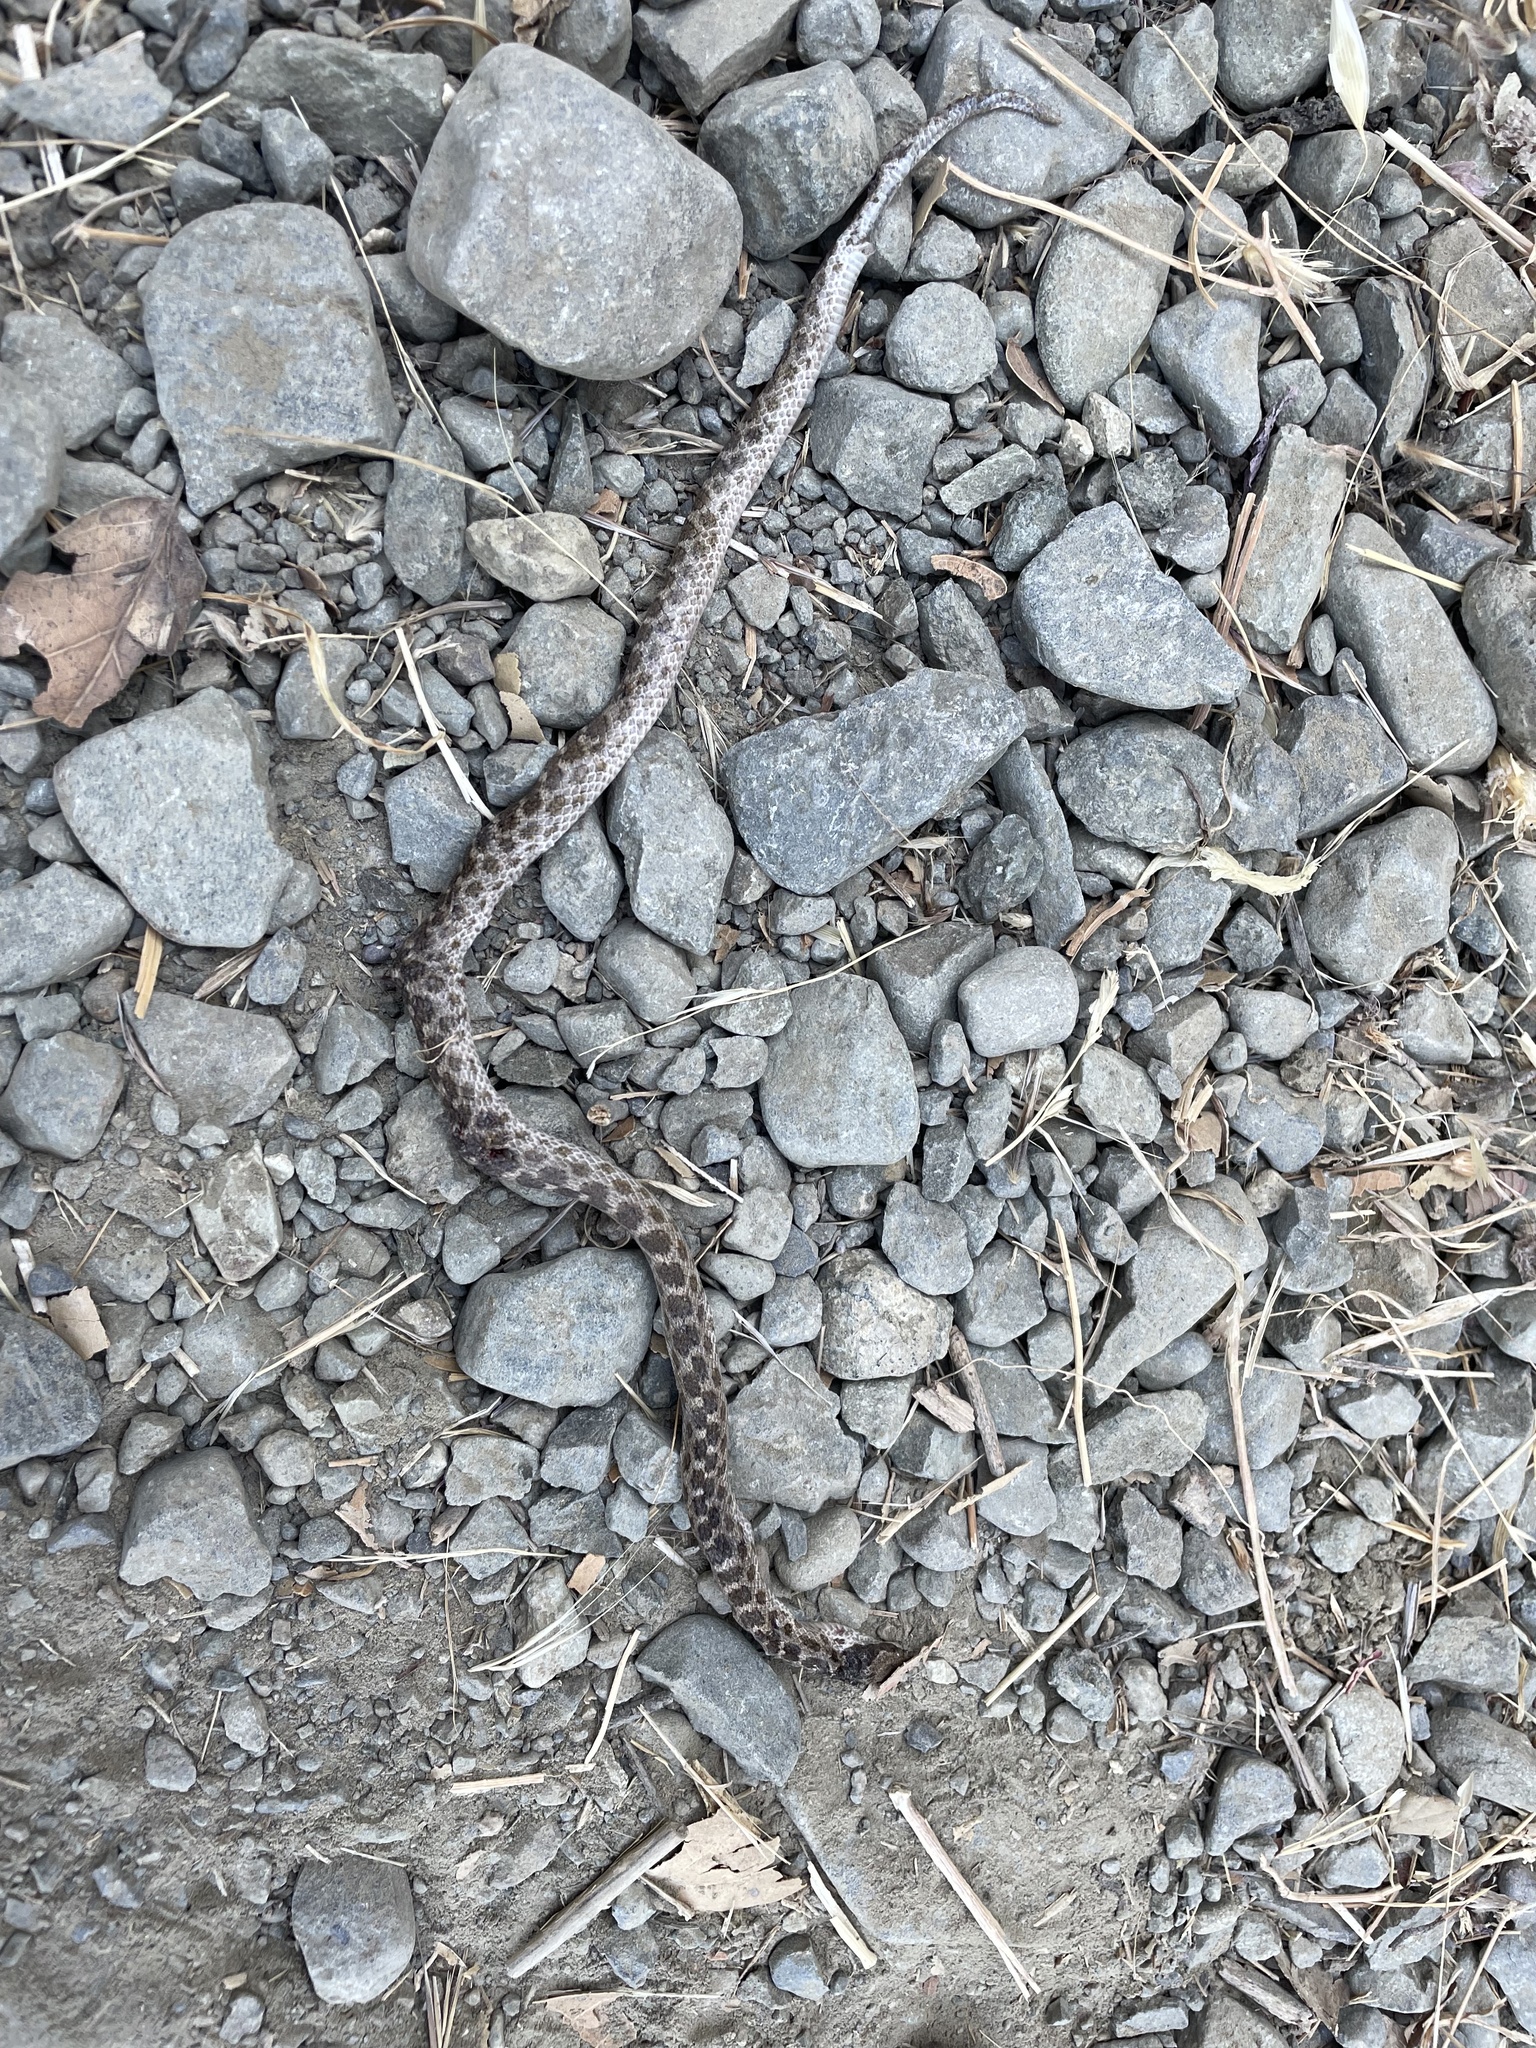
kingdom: Animalia
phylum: Chordata
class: Squamata
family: Colubridae
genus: Hypsiglena
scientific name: Hypsiglena ochrorhynchus
